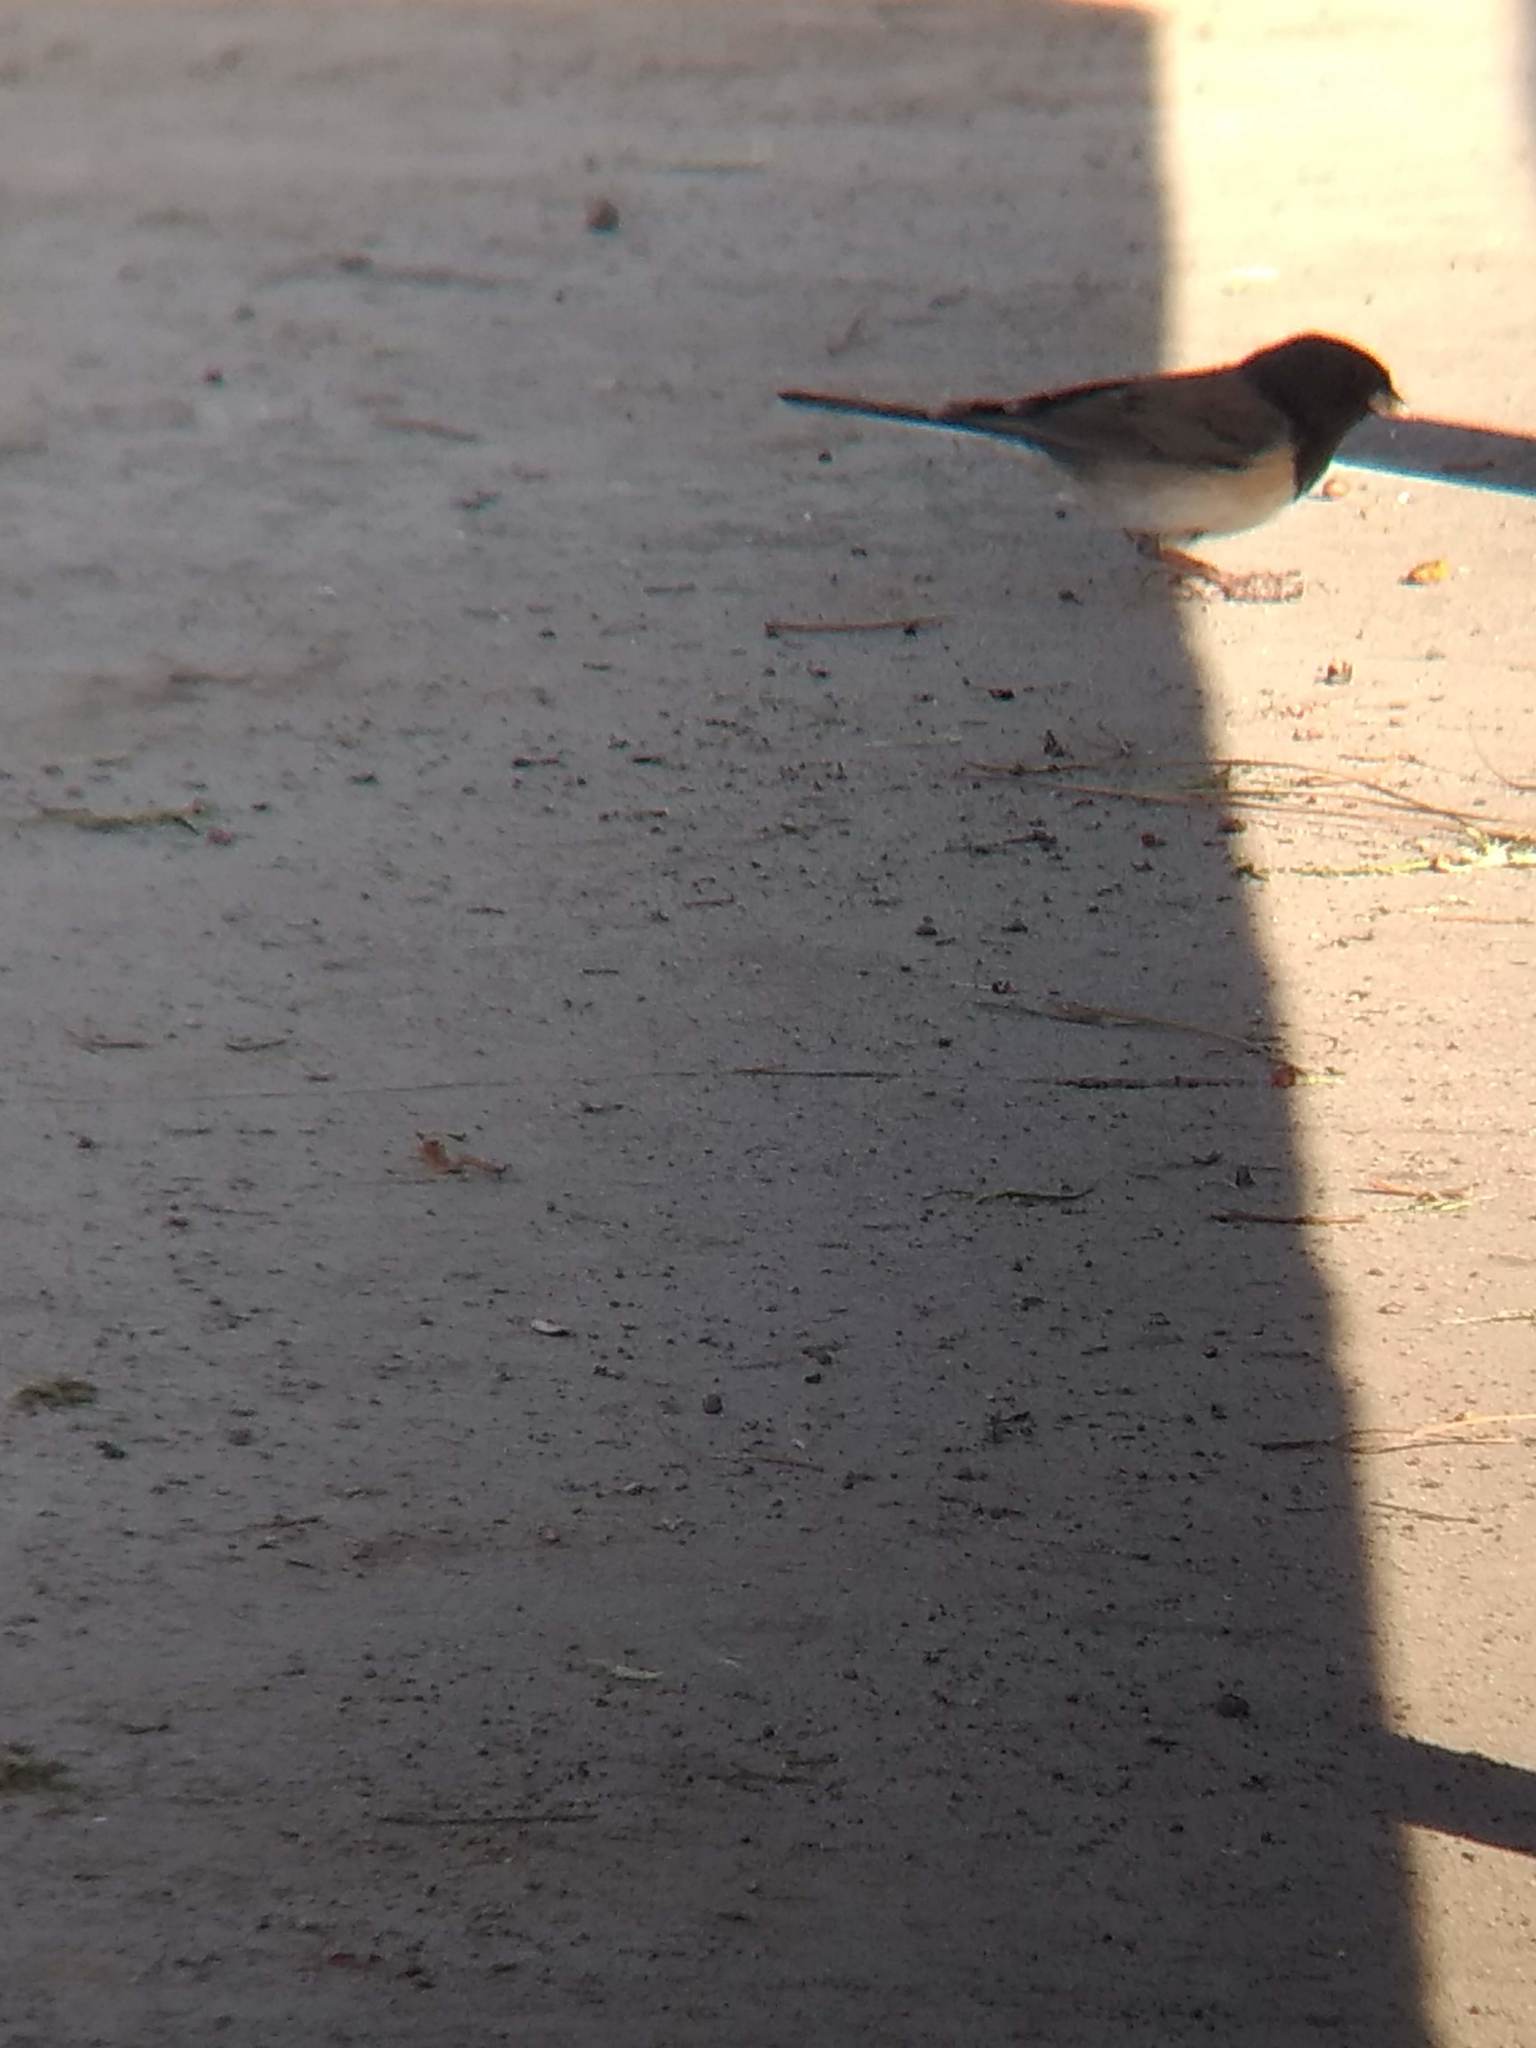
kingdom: Animalia
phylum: Chordata
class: Aves
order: Passeriformes
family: Passerellidae
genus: Junco
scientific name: Junco hyemalis
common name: Dark-eyed junco
